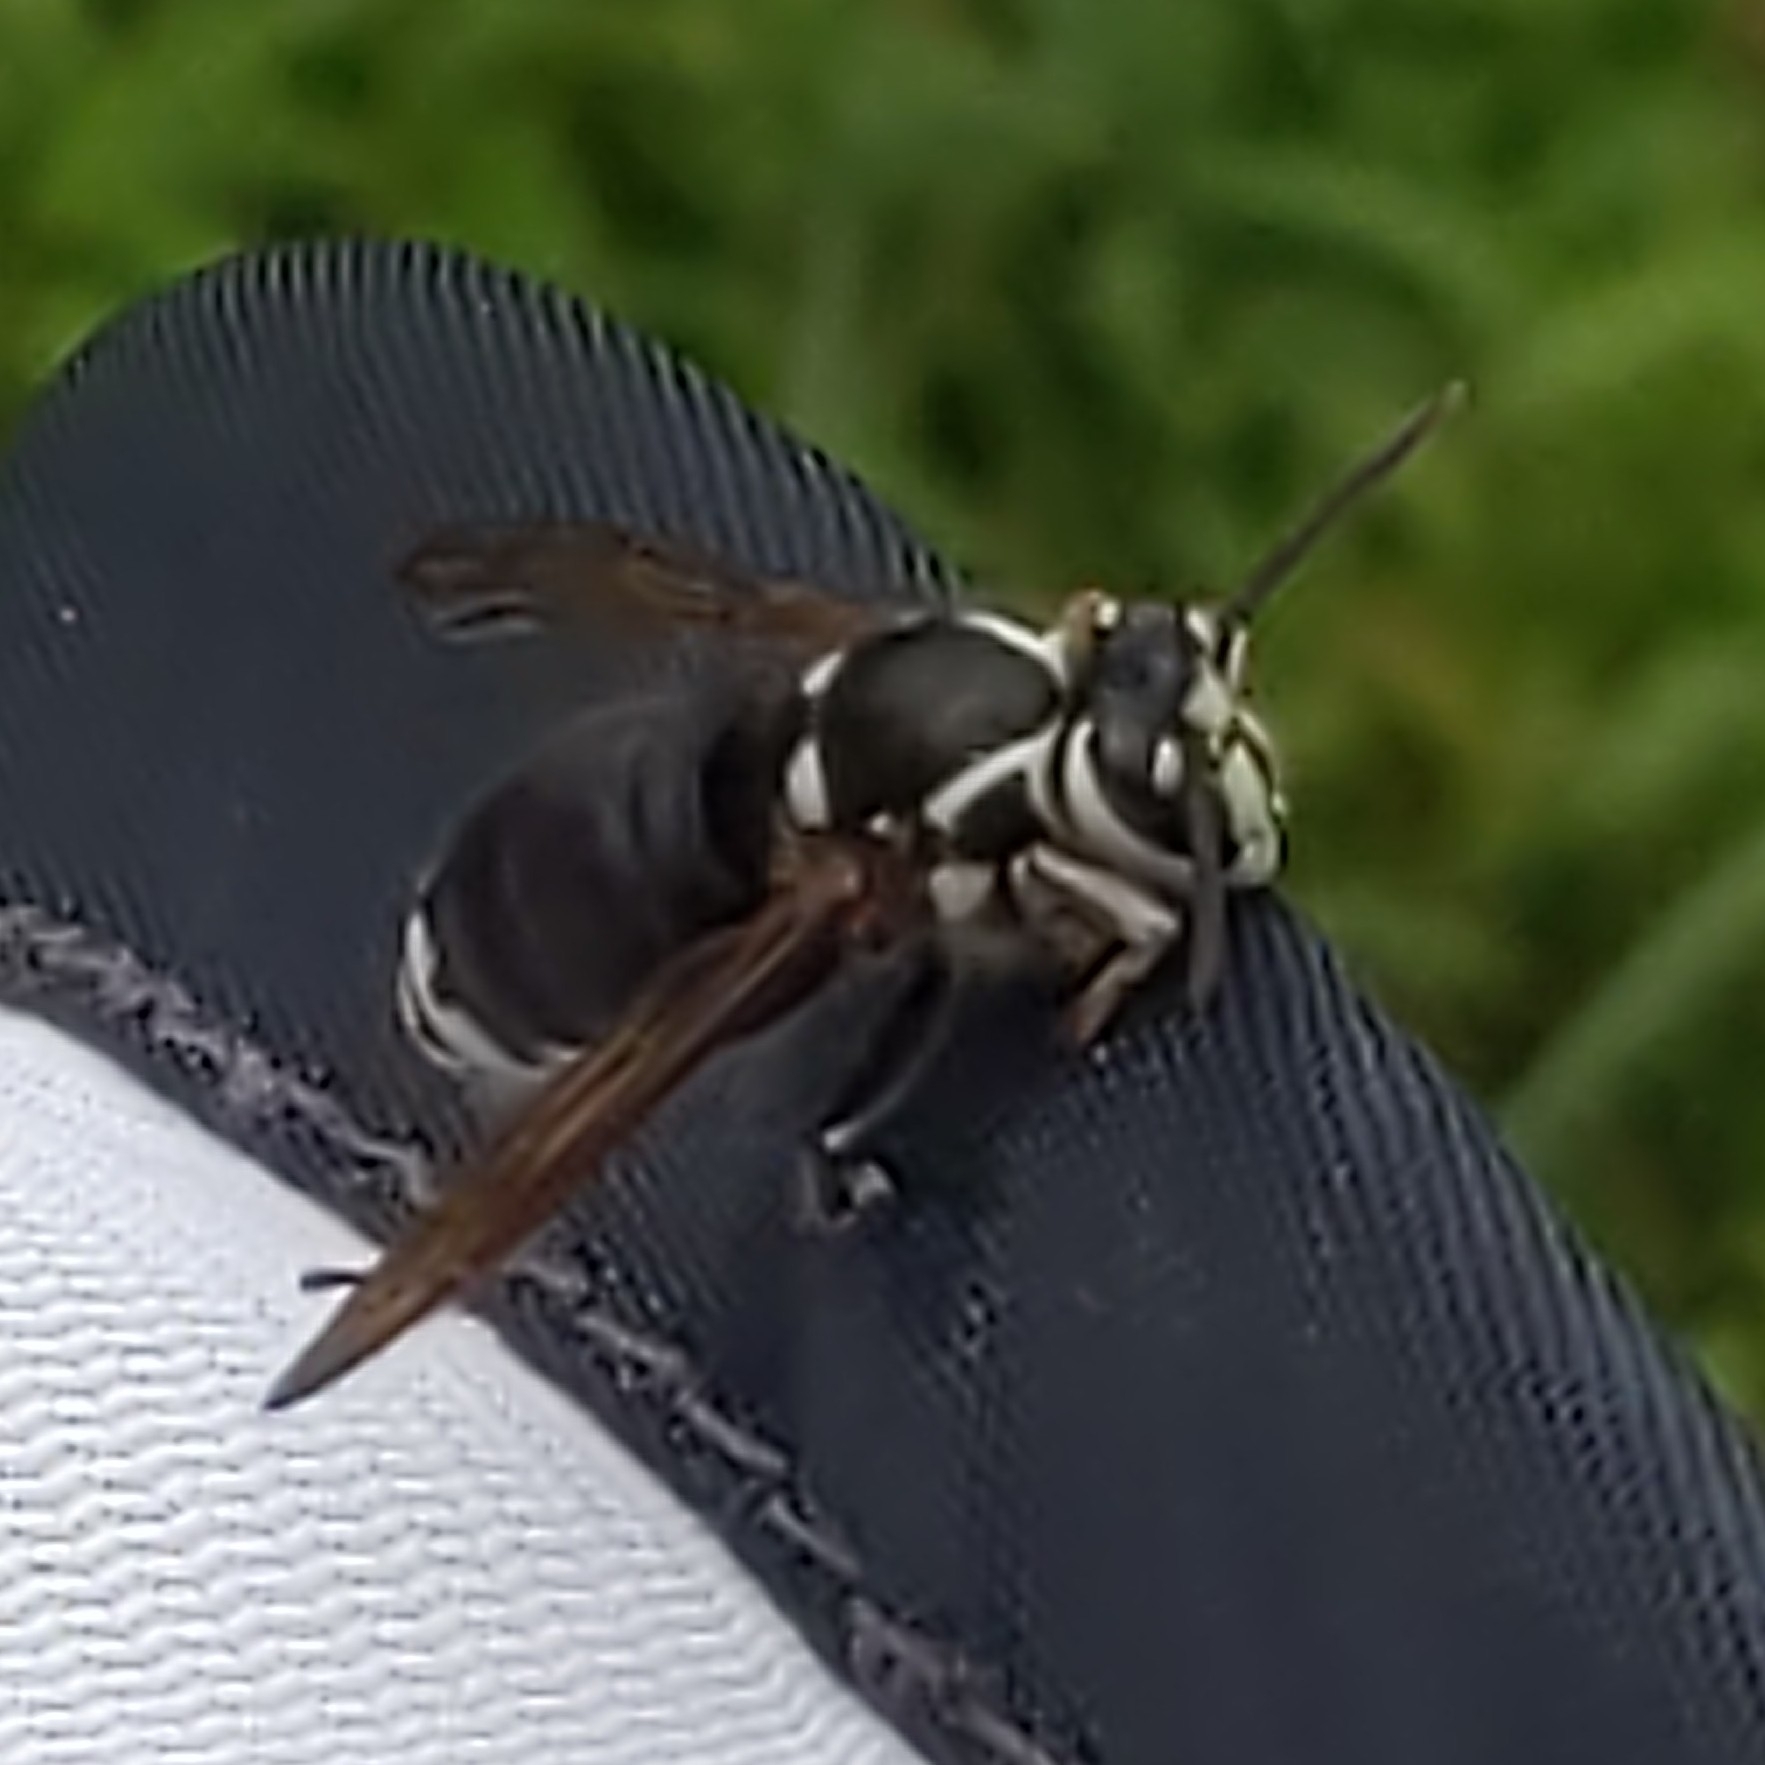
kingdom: Animalia
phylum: Arthropoda
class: Insecta
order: Hymenoptera
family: Vespidae
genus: Dolichovespula
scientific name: Dolichovespula maculata
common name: Bald-faced hornet
